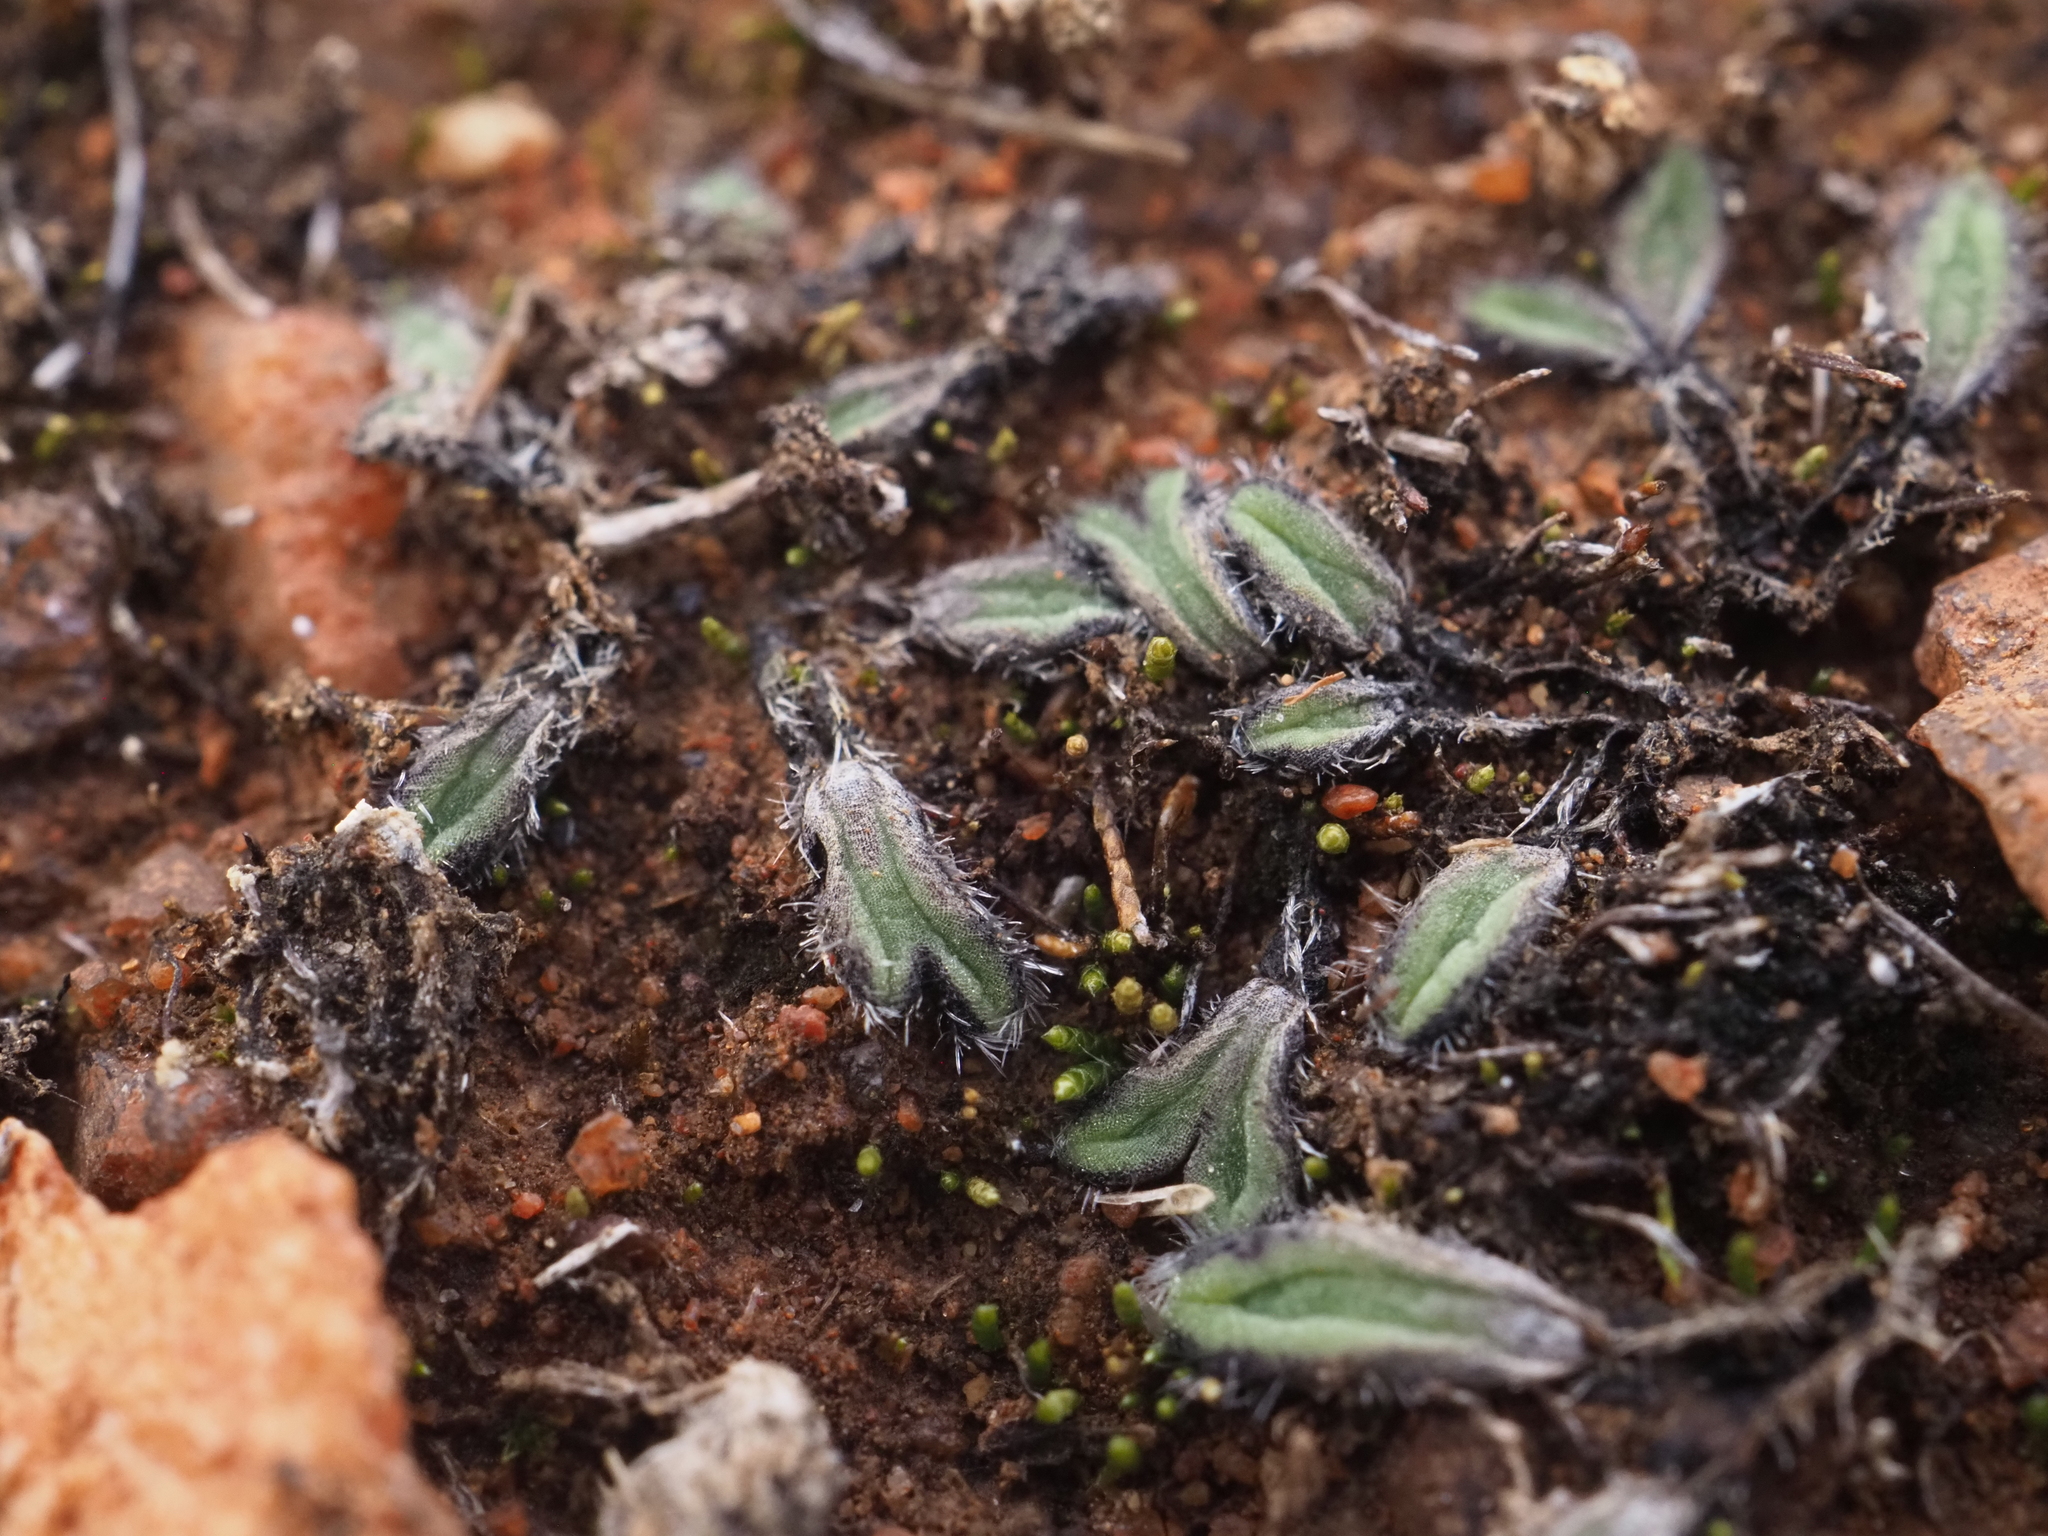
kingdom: Plantae
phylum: Marchantiophyta
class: Marchantiopsida
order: Marchantiales
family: Ricciaceae
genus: Riccia
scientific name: Riccia crinita
